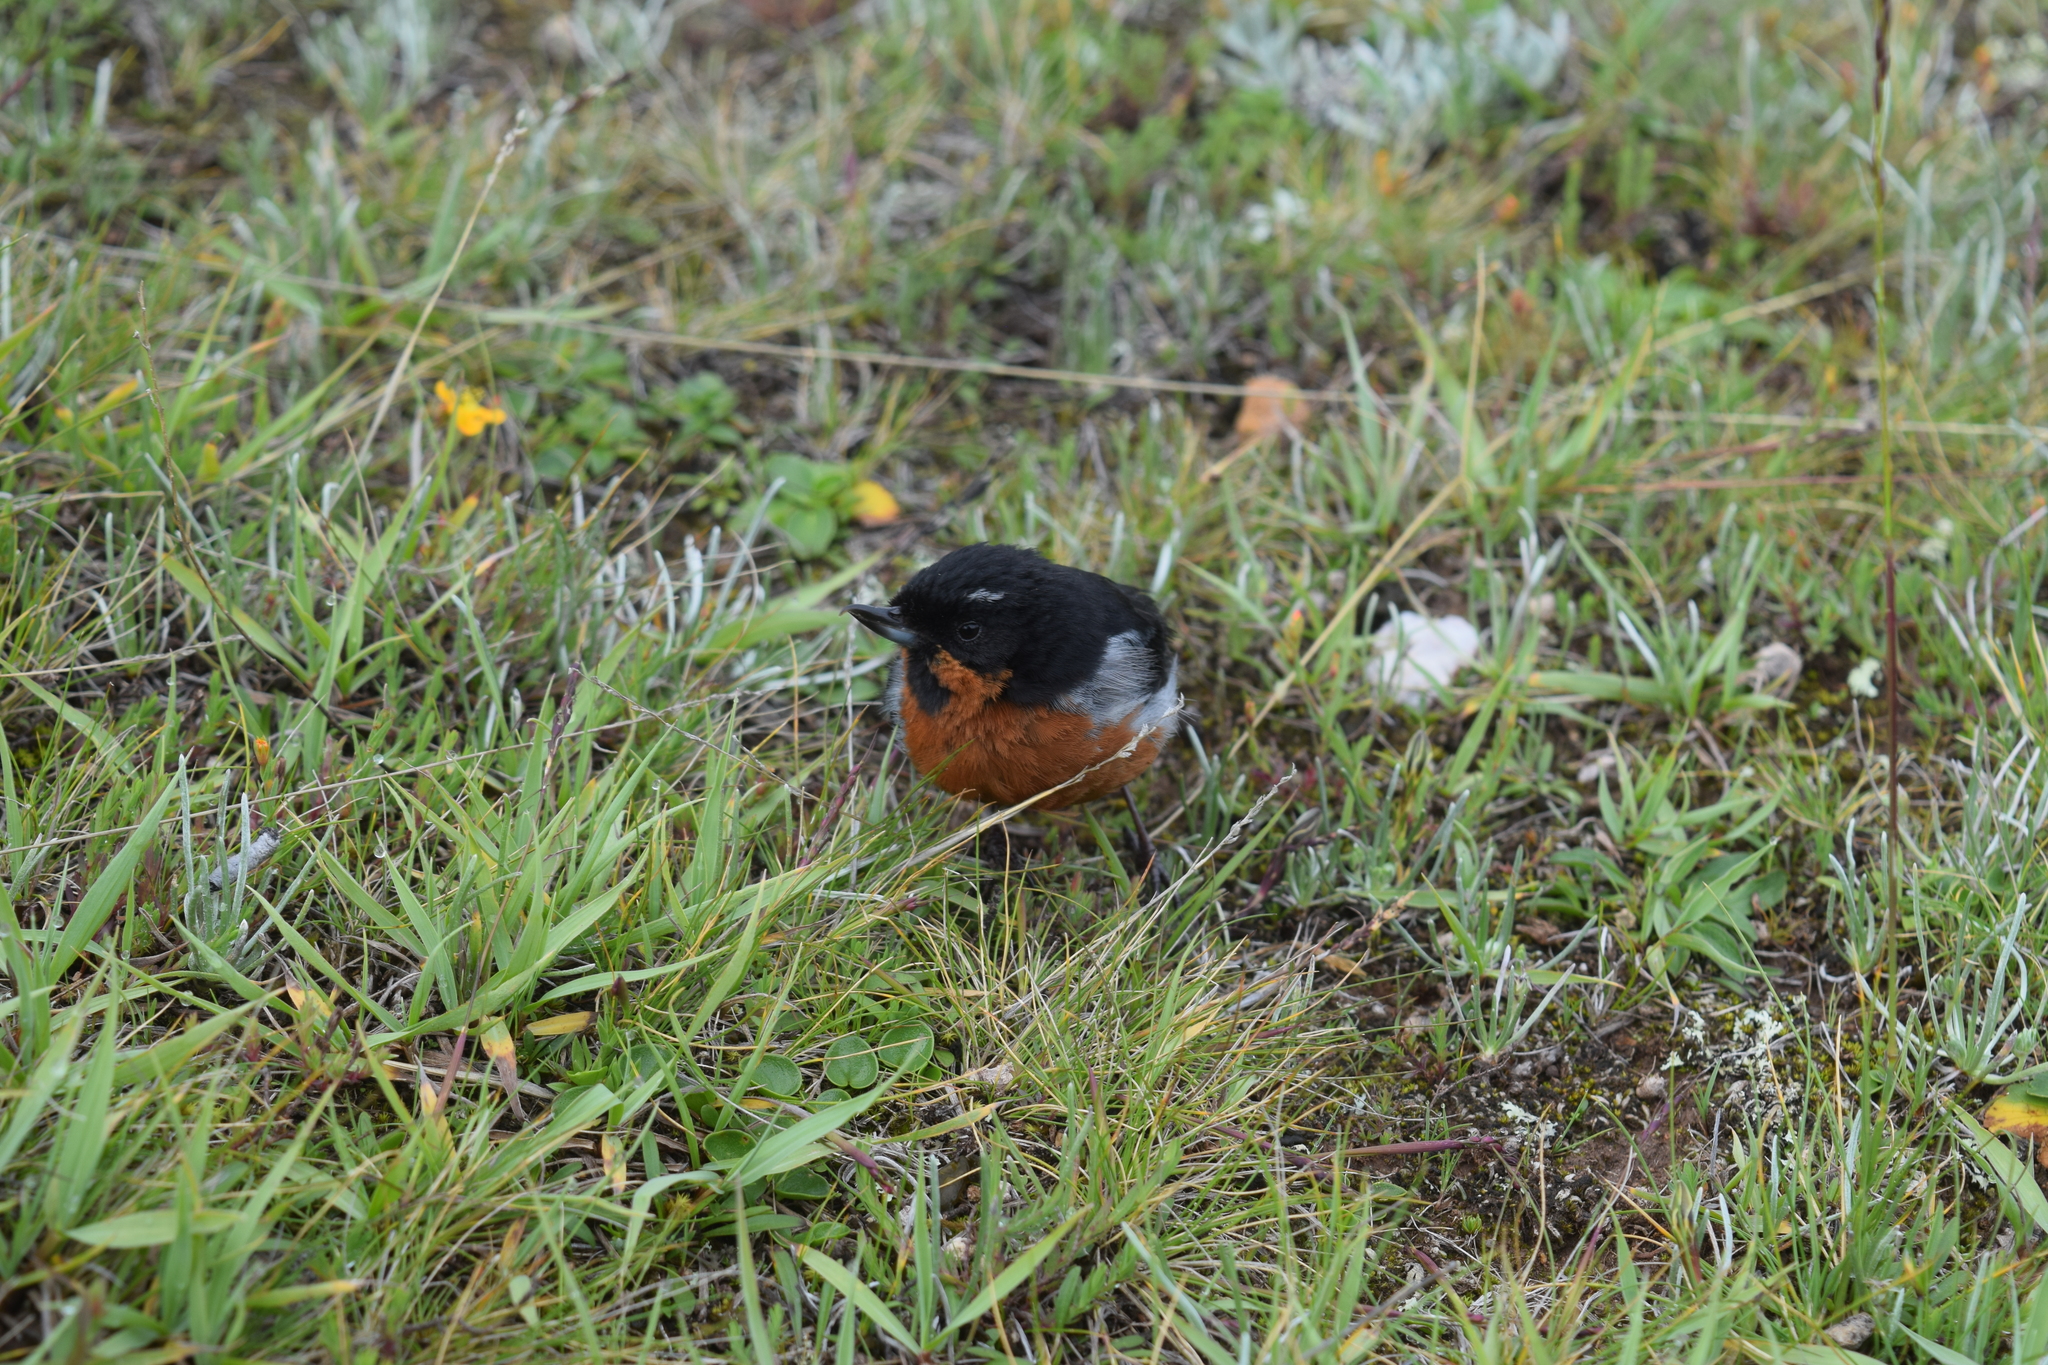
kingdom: Animalia
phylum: Chordata
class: Aves
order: Passeriformes
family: Thraupidae
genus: Diglossa
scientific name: Diglossa brunneiventris
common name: Black-throated flowerpiercer
